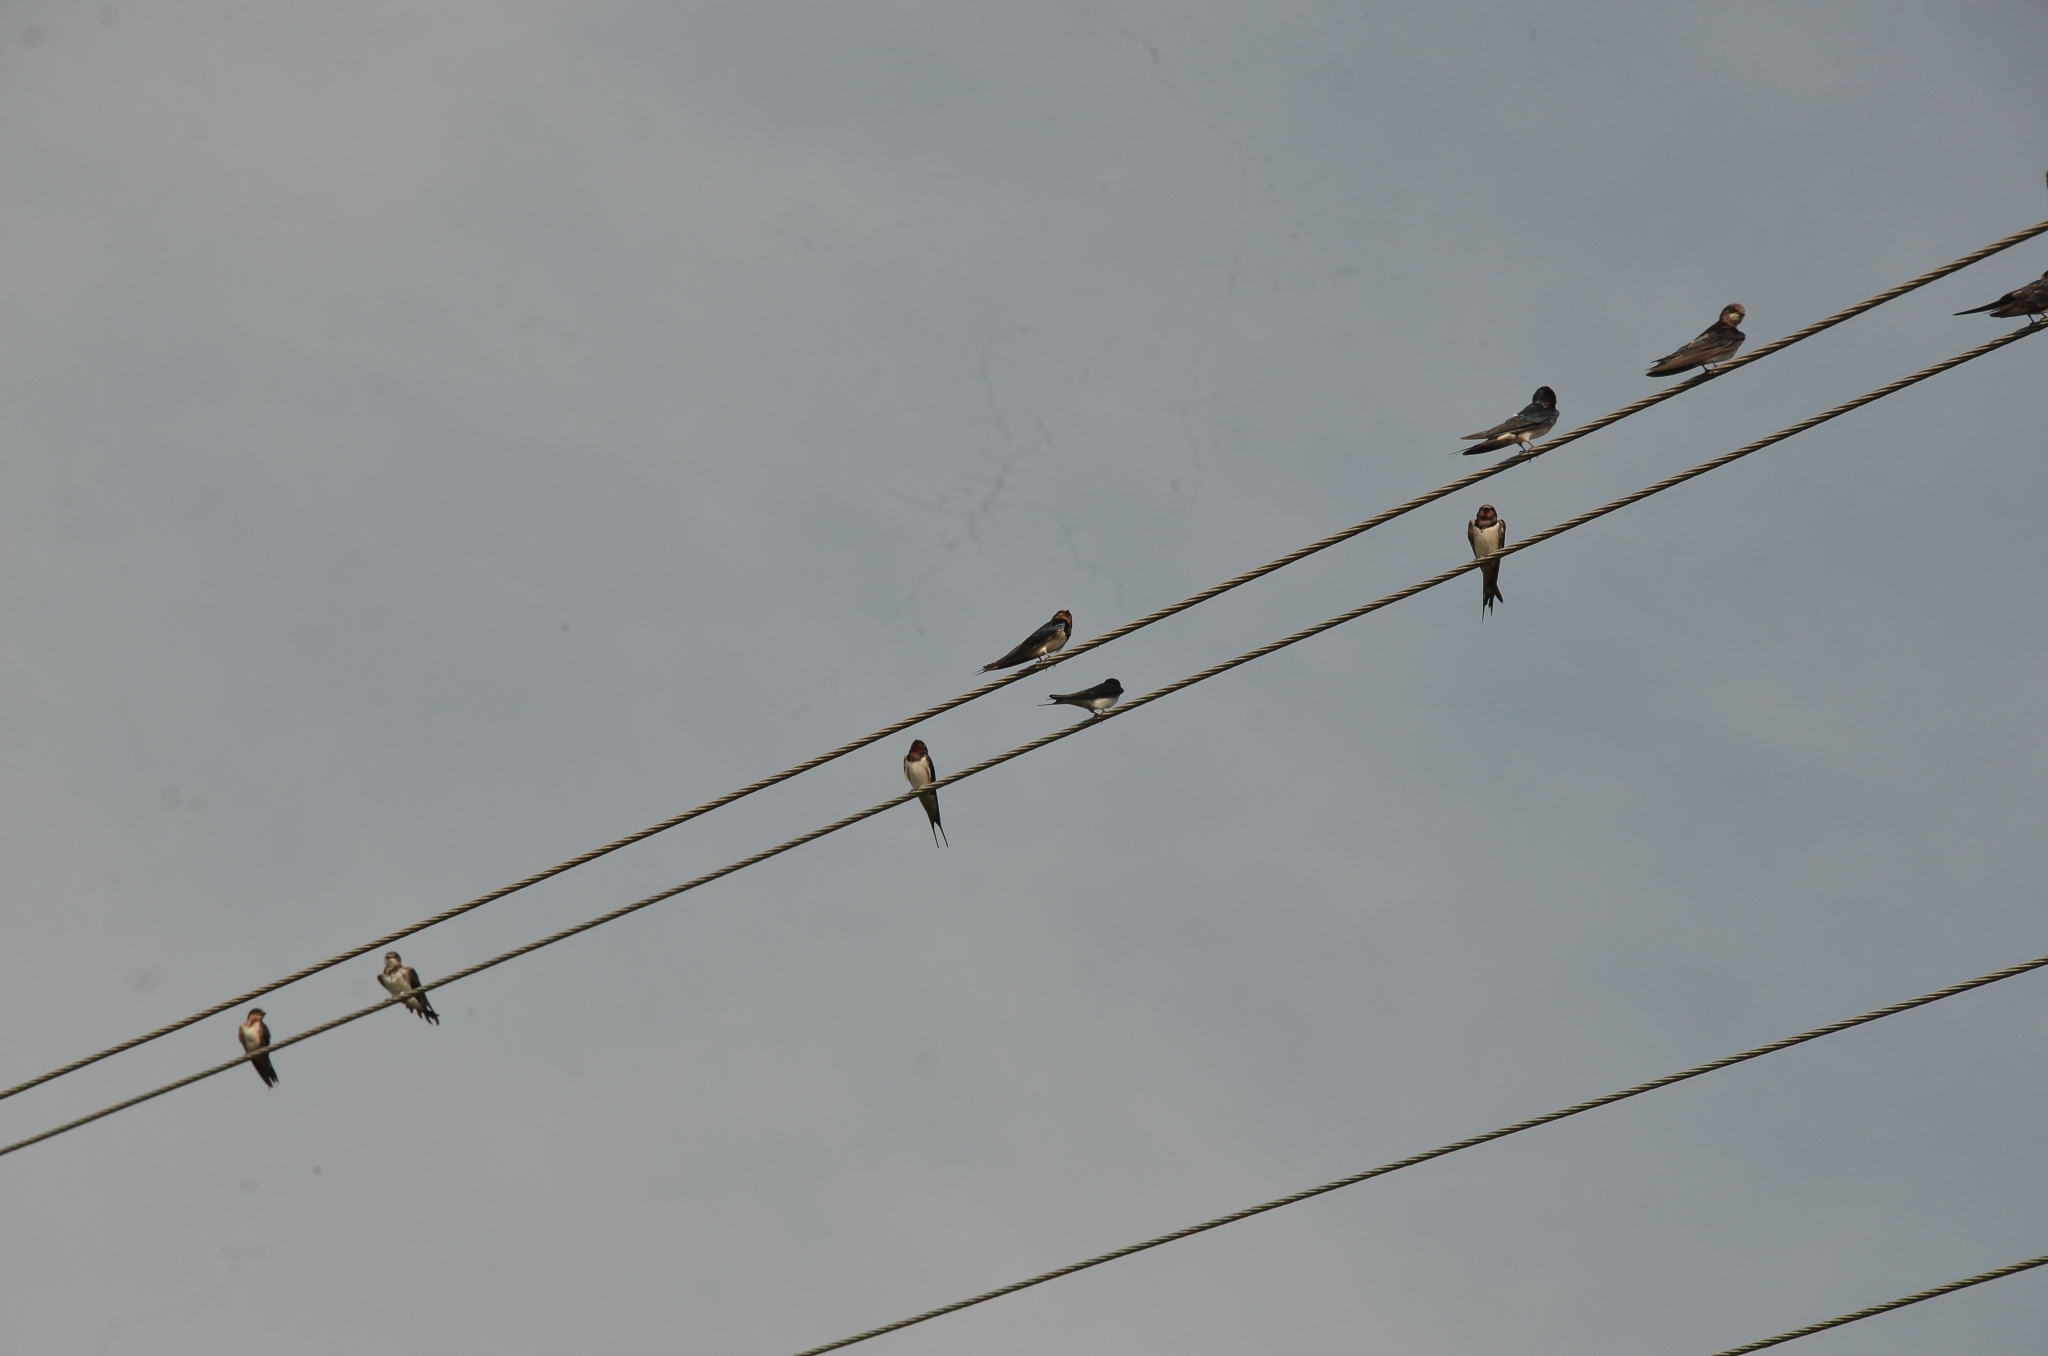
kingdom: Animalia
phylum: Chordata
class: Aves
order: Passeriformes
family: Hirundinidae
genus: Hirundo
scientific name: Hirundo rustica
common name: Barn swallow
